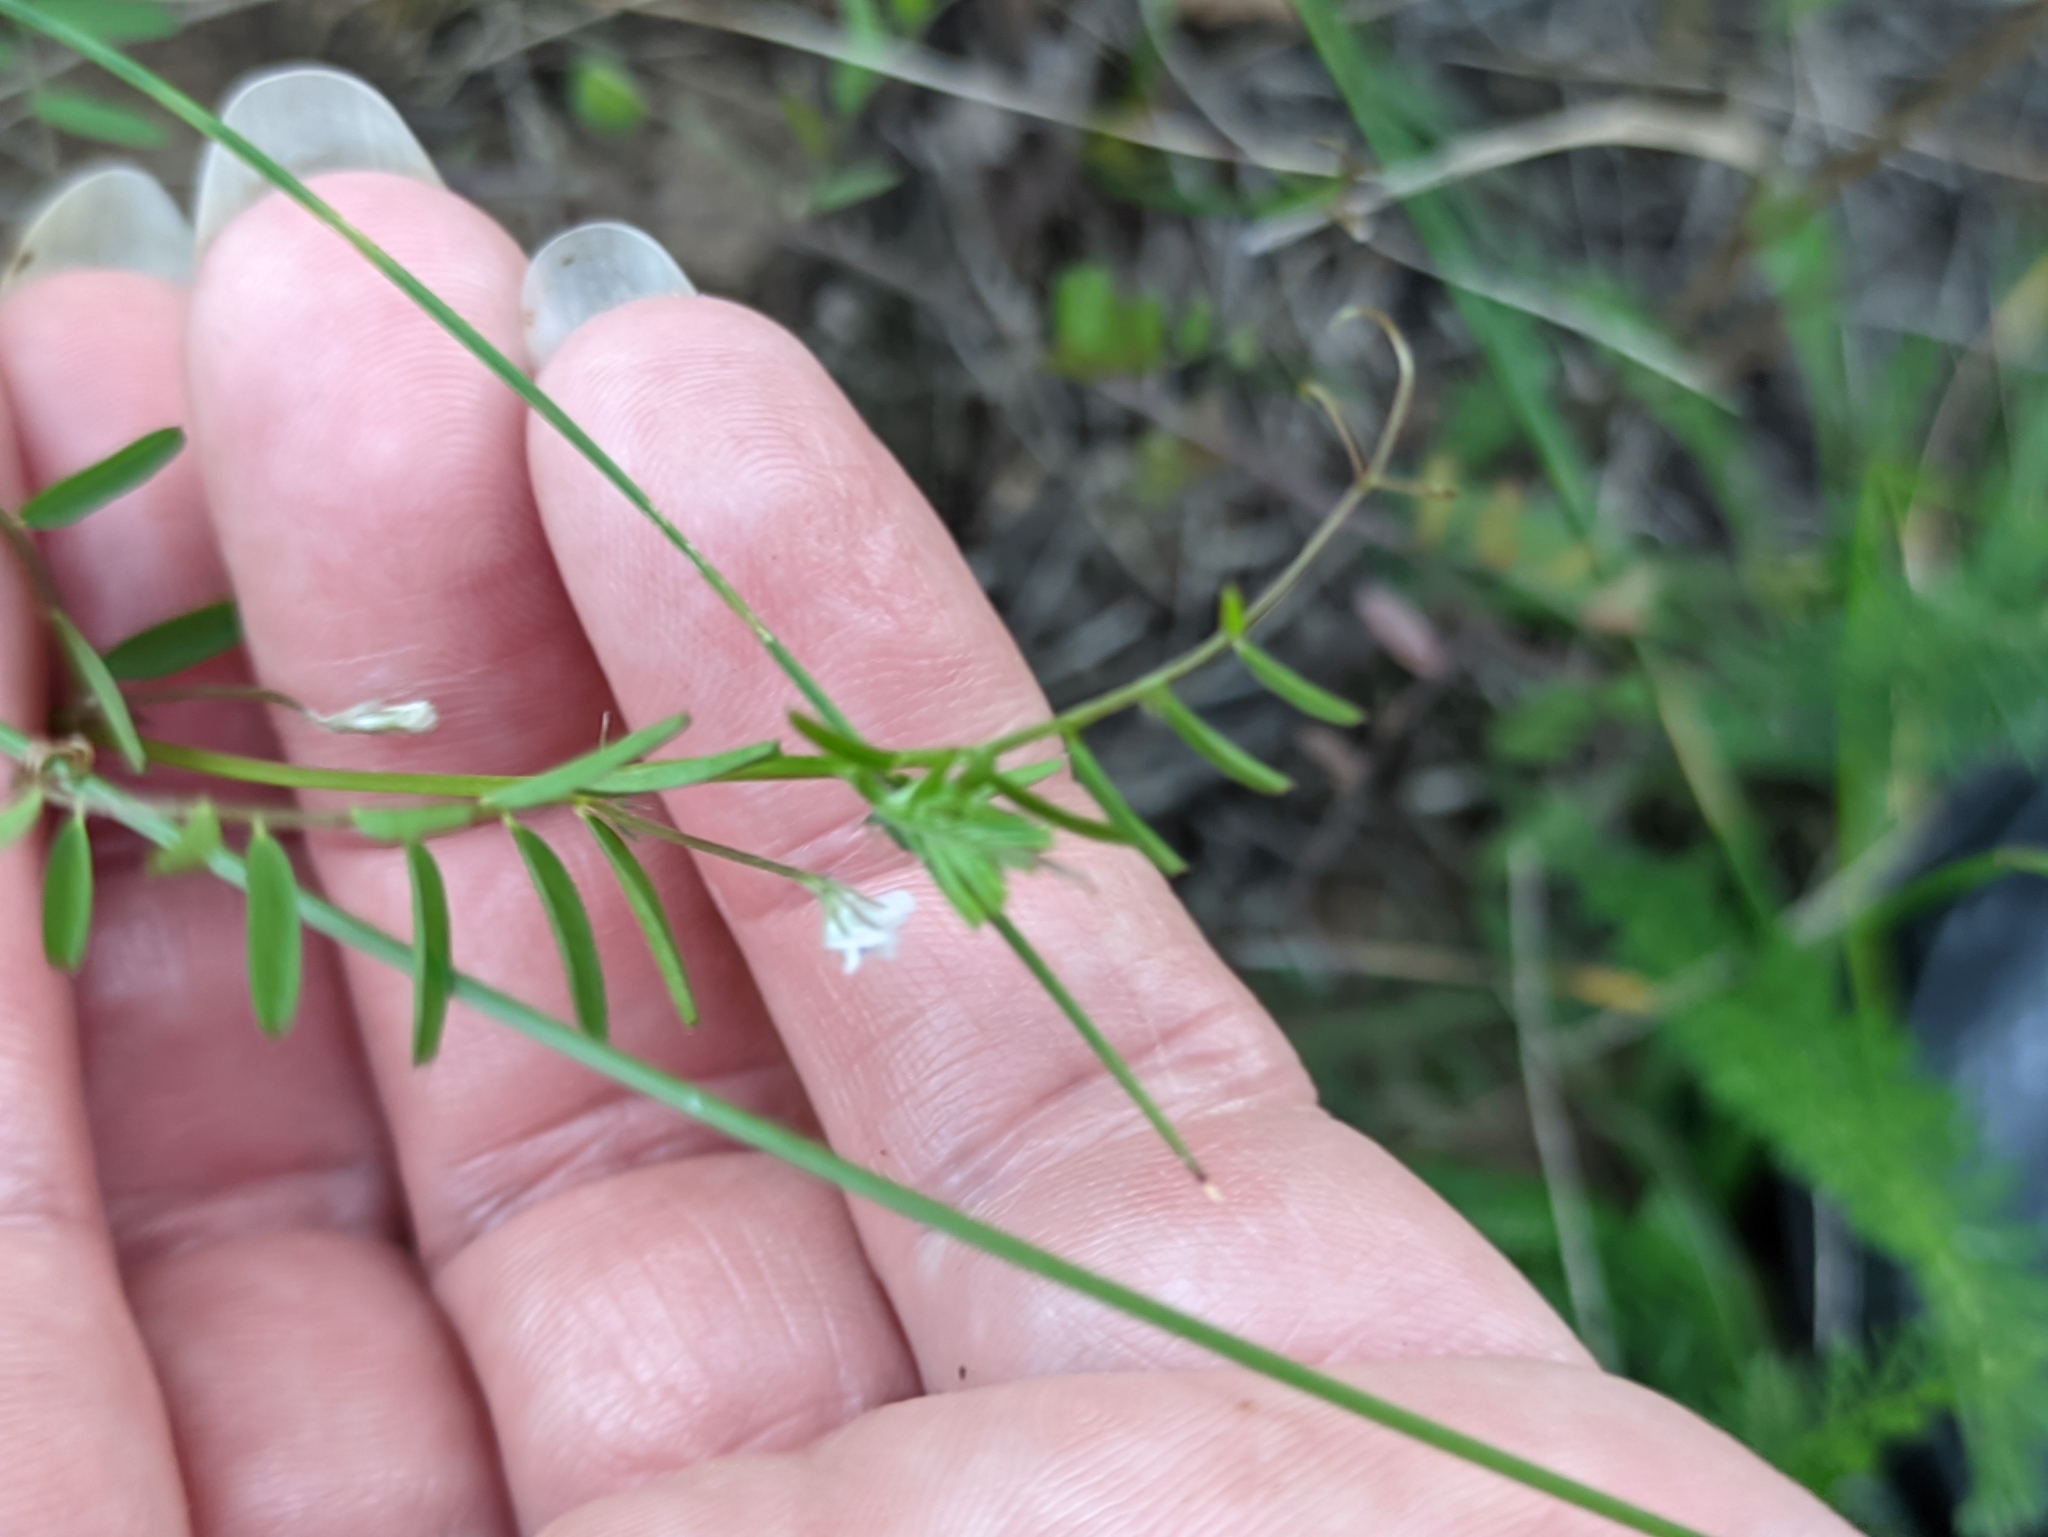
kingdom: Plantae
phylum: Tracheophyta
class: Magnoliopsida
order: Fabales
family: Fabaceae
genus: Vicia
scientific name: Vicia hirsuta
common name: Tiny vetch
